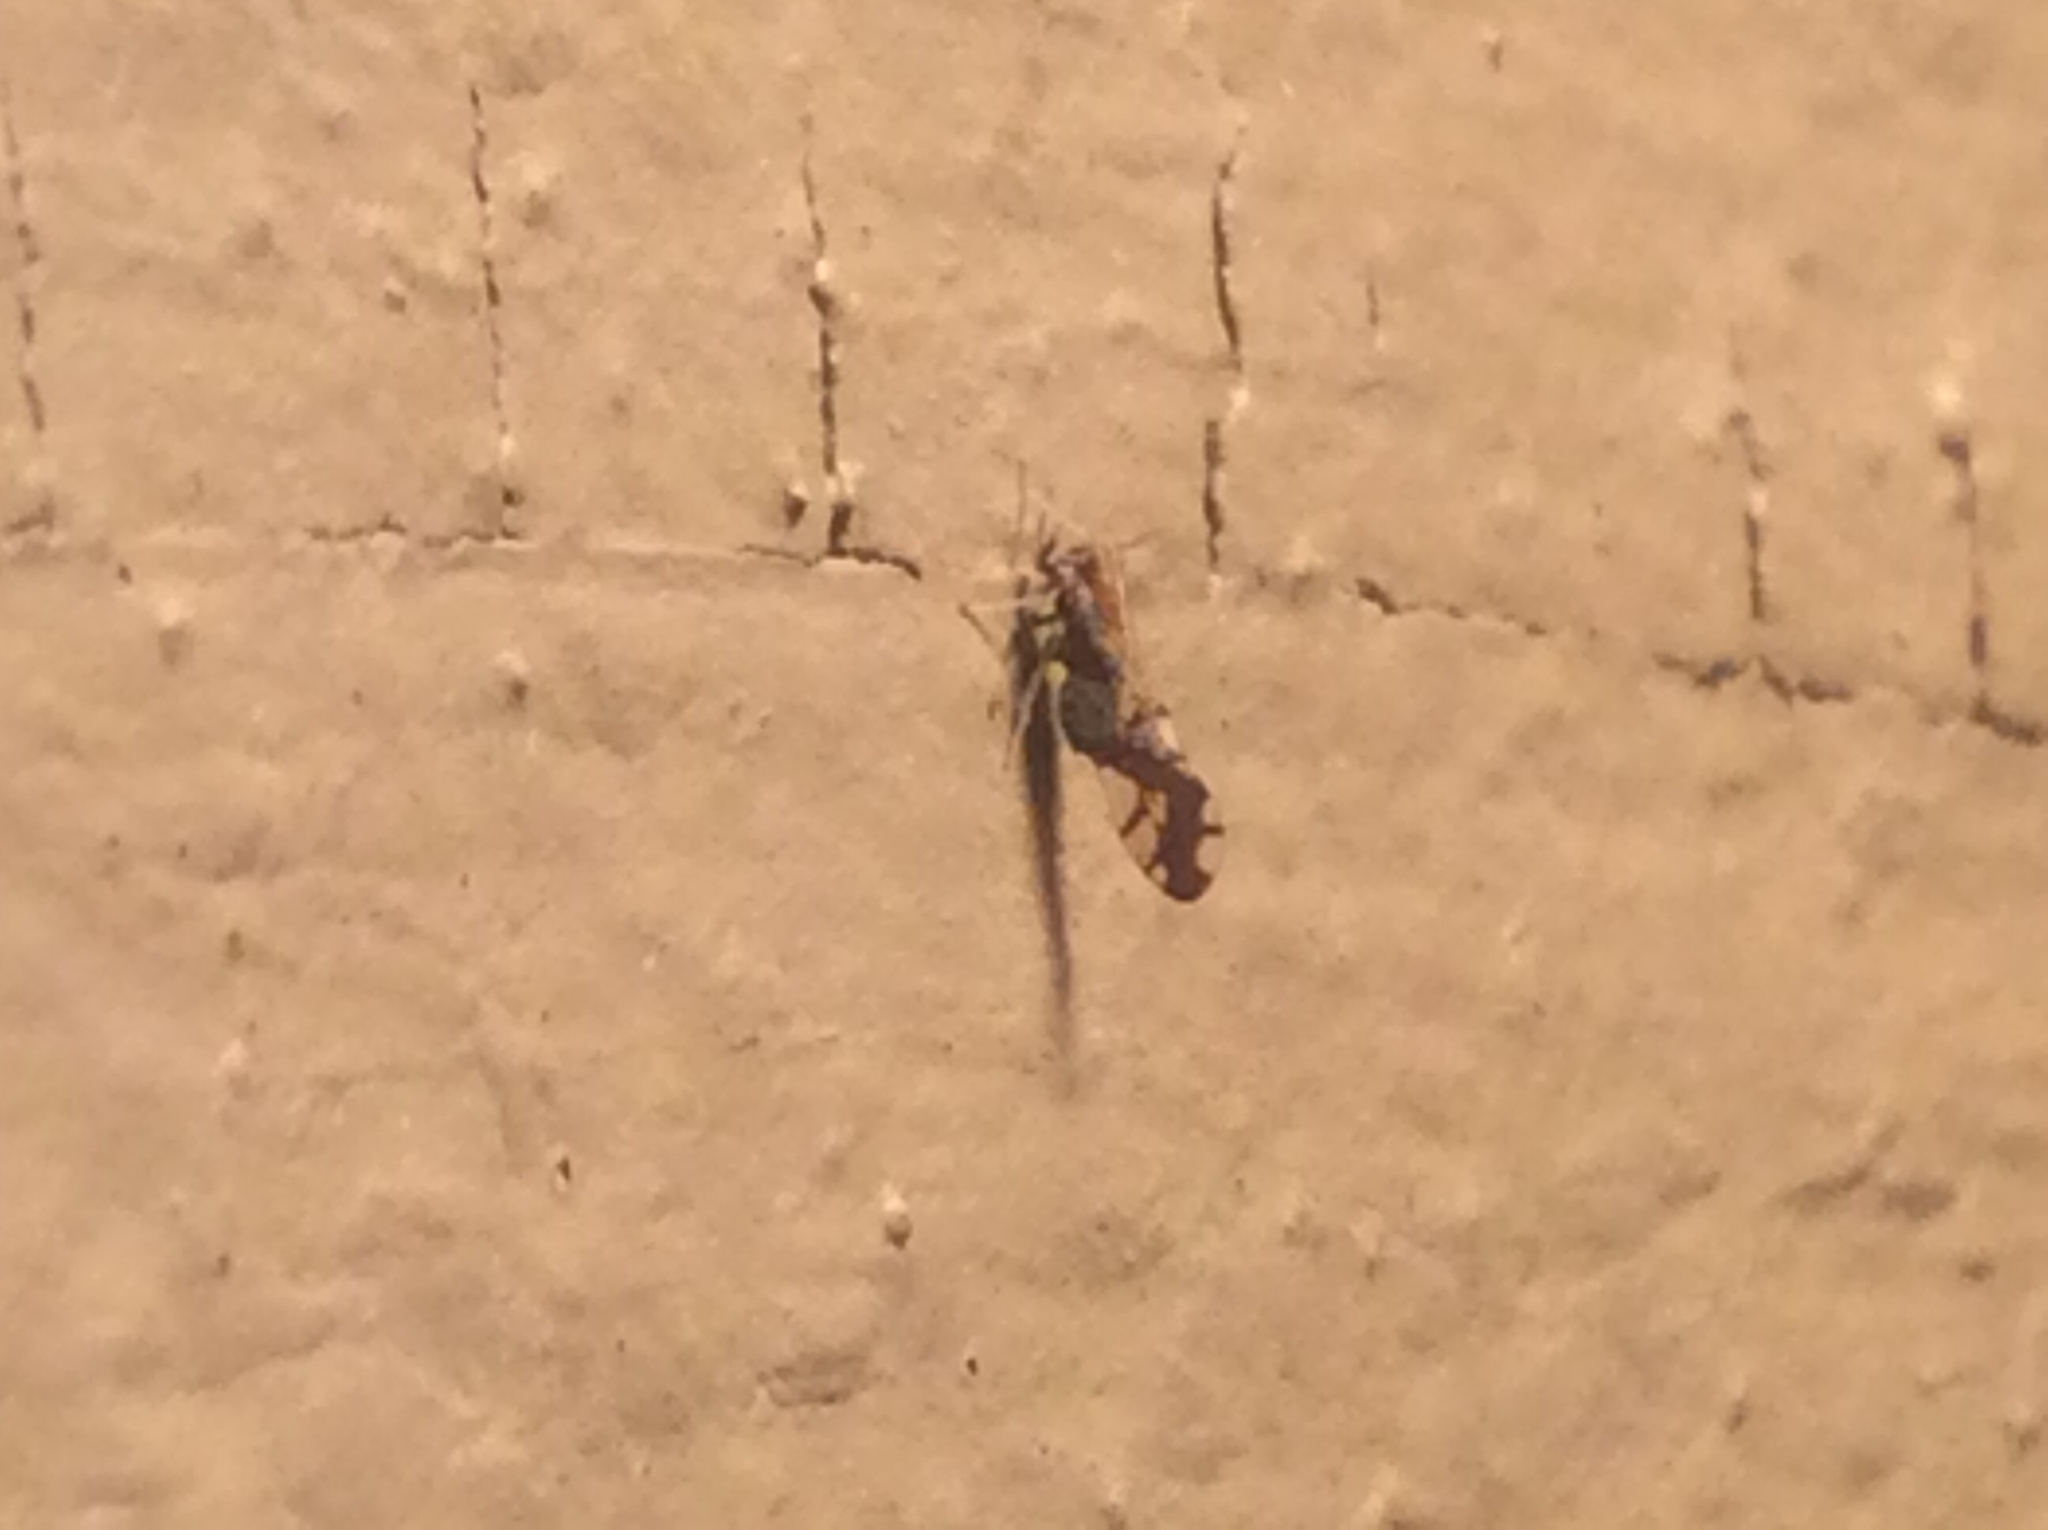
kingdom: Animalia
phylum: Arthropoda
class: Insecta
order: Hemiptera
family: Delphacidae
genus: Liburniella
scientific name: Liburniella ornata
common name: Ornate planthopper
